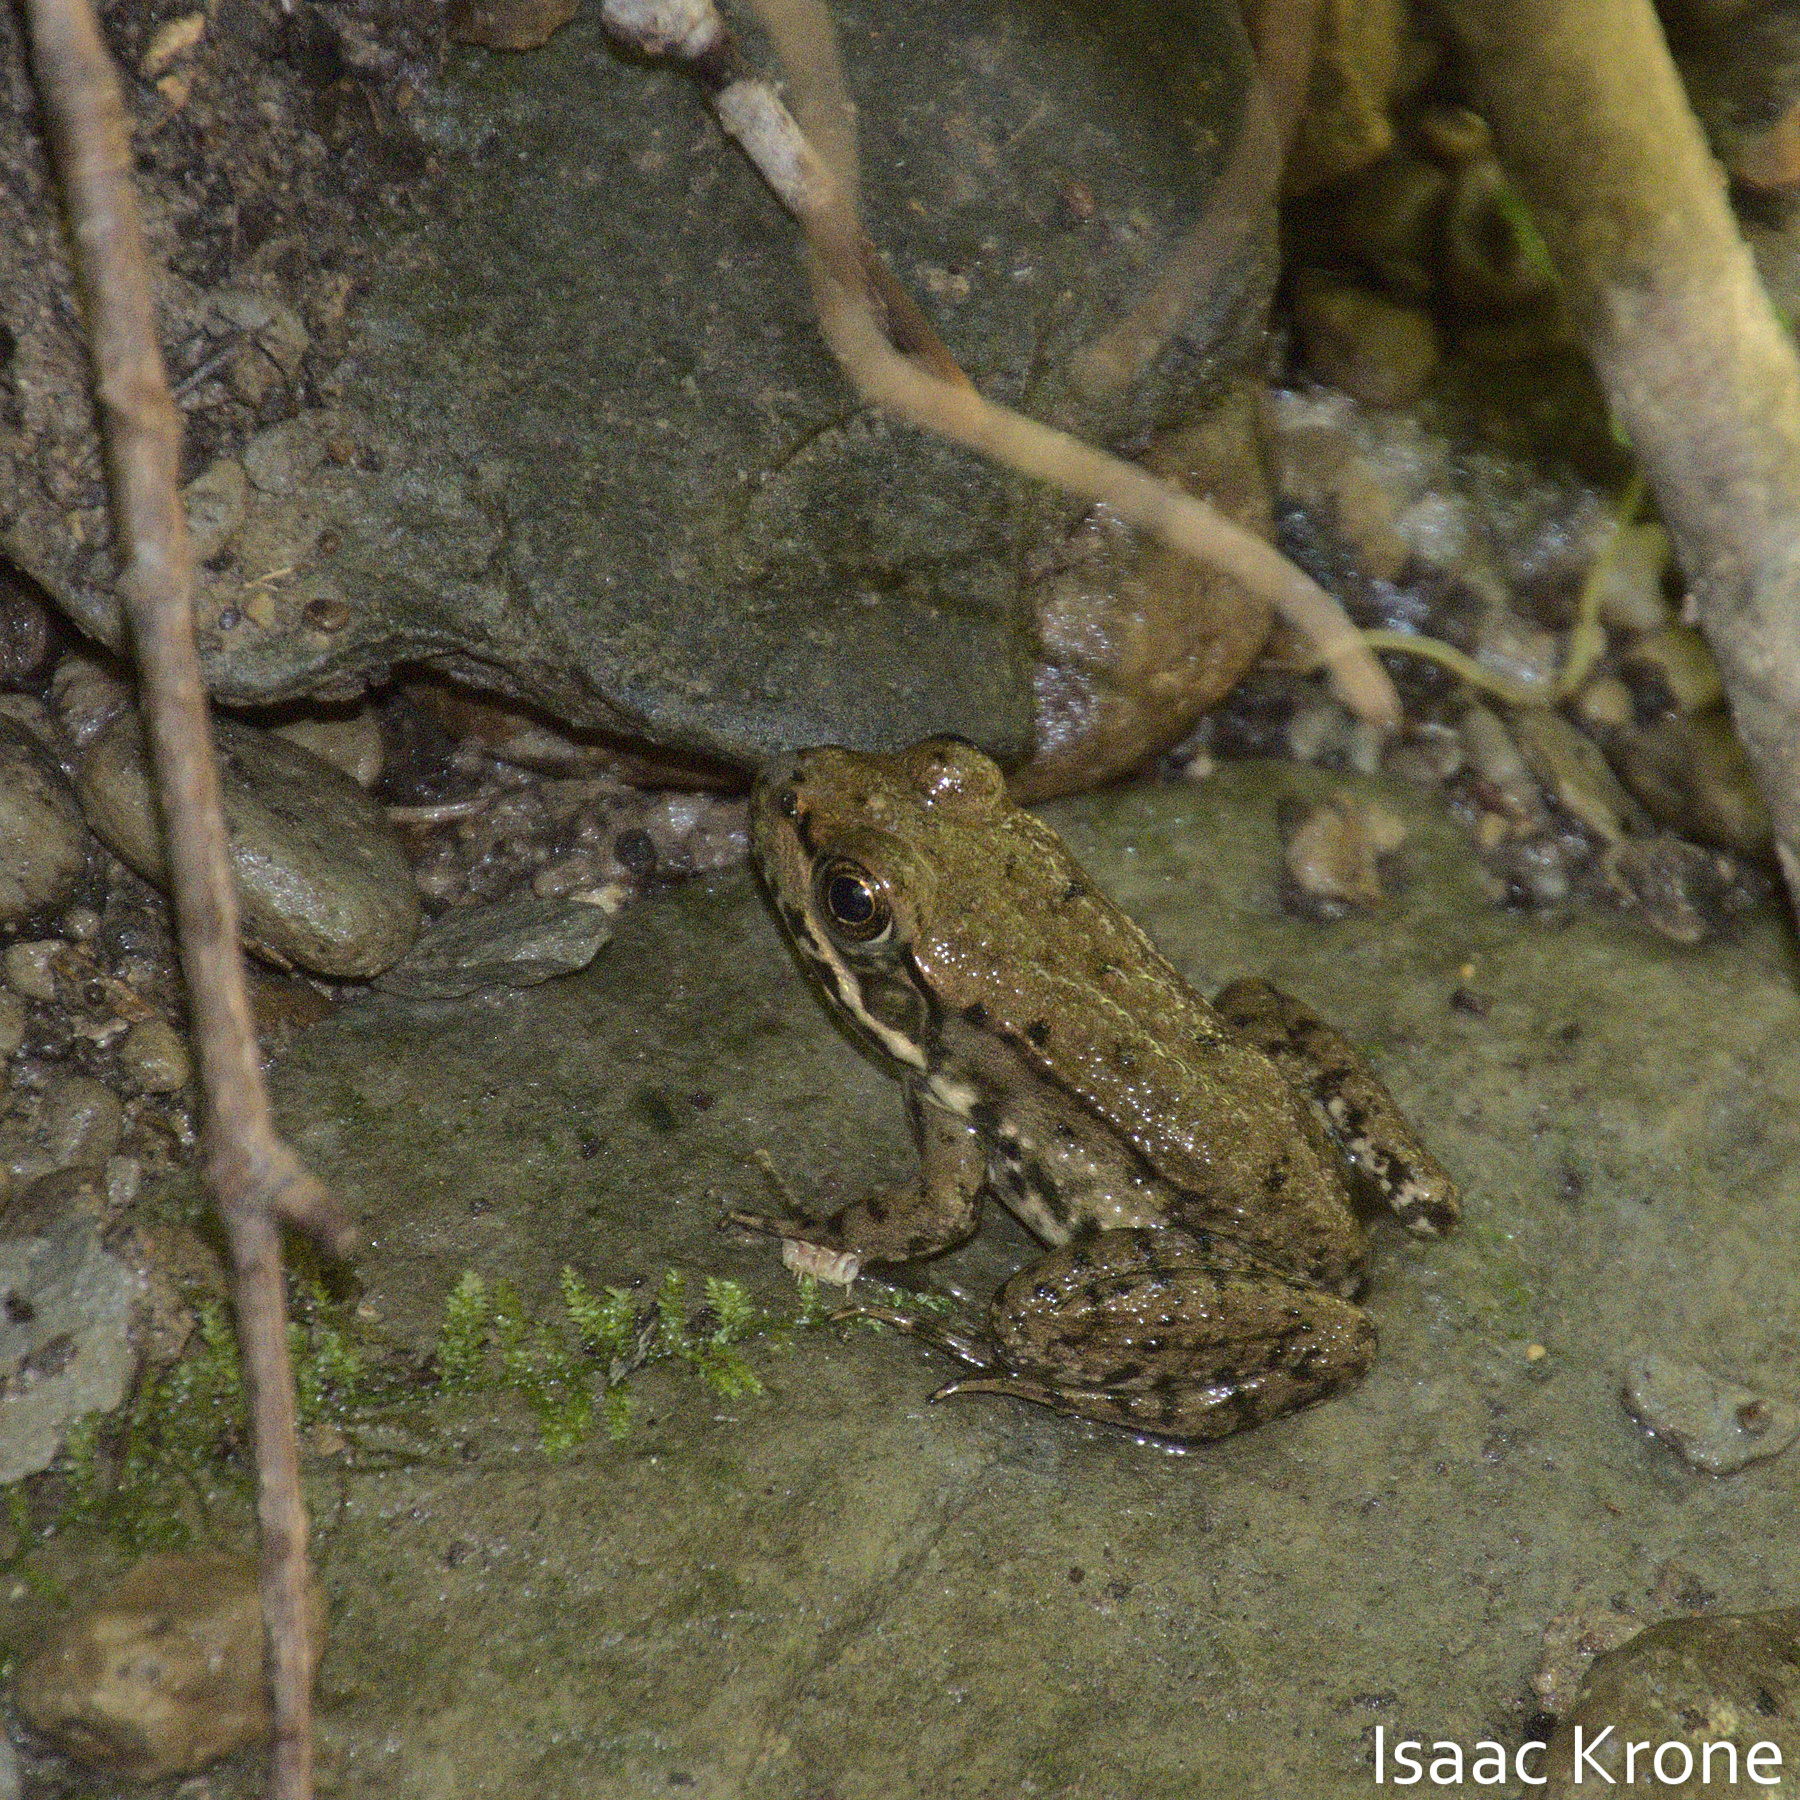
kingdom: Animalia
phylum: Chordata
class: Amphibia
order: Anura
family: Ranidae
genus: Lithobates
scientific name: Lithobates clamitans
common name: Green frog
